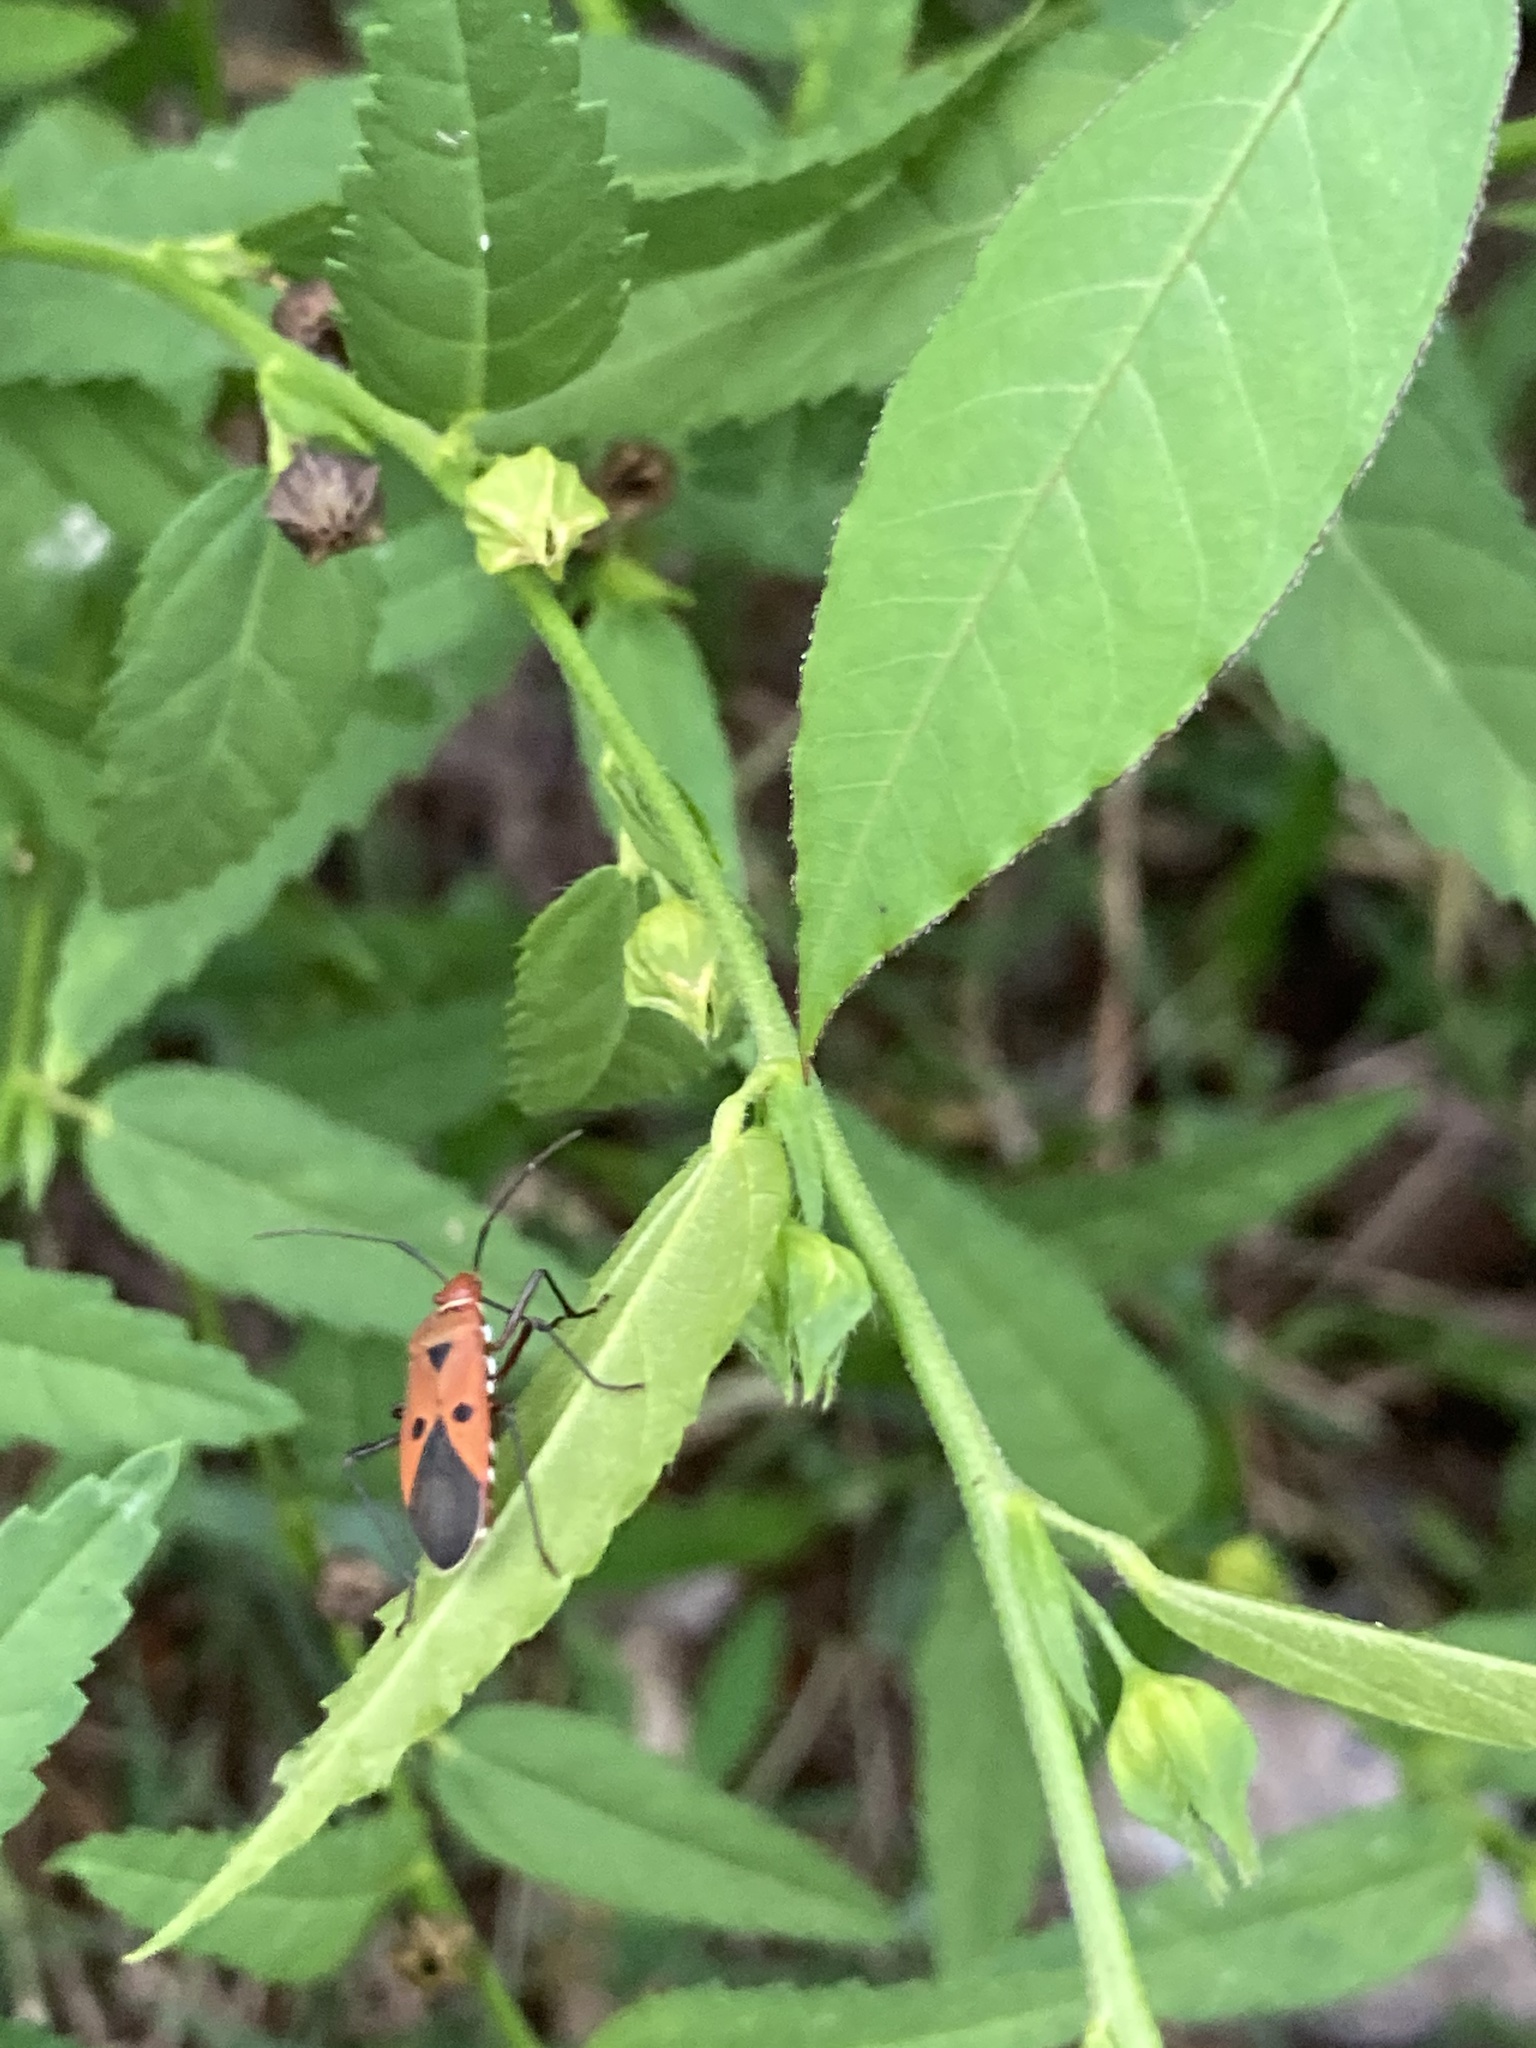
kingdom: Animalia
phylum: Arthropoda
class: Insecta
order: Hemiptera
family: Pyrrhocoridae
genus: Dysdercus
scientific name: Dysdercus cingulatus
